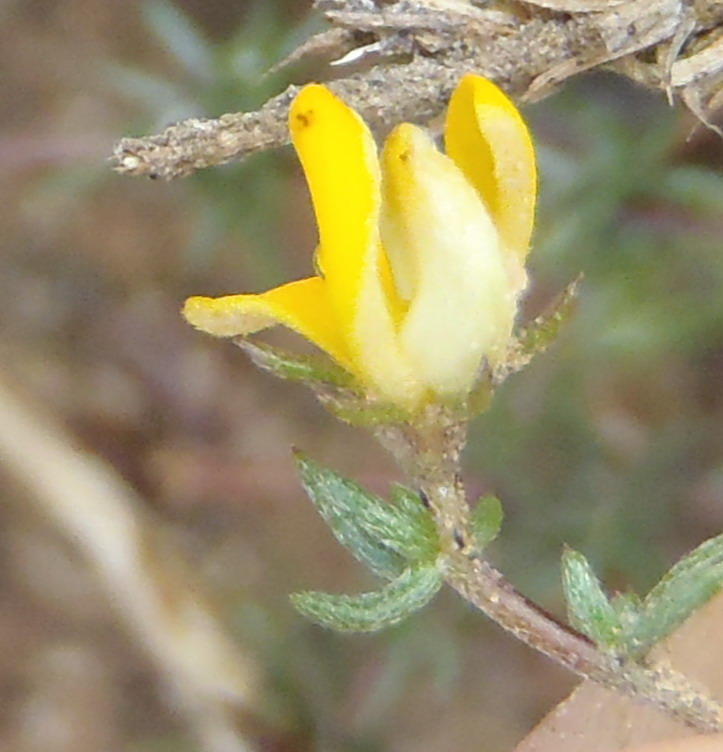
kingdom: Plantae
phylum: Tracheophyta
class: Magnoliopsida
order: Fabales
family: Fabaceae
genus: Aspalathus
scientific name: Aspalathus rubens
